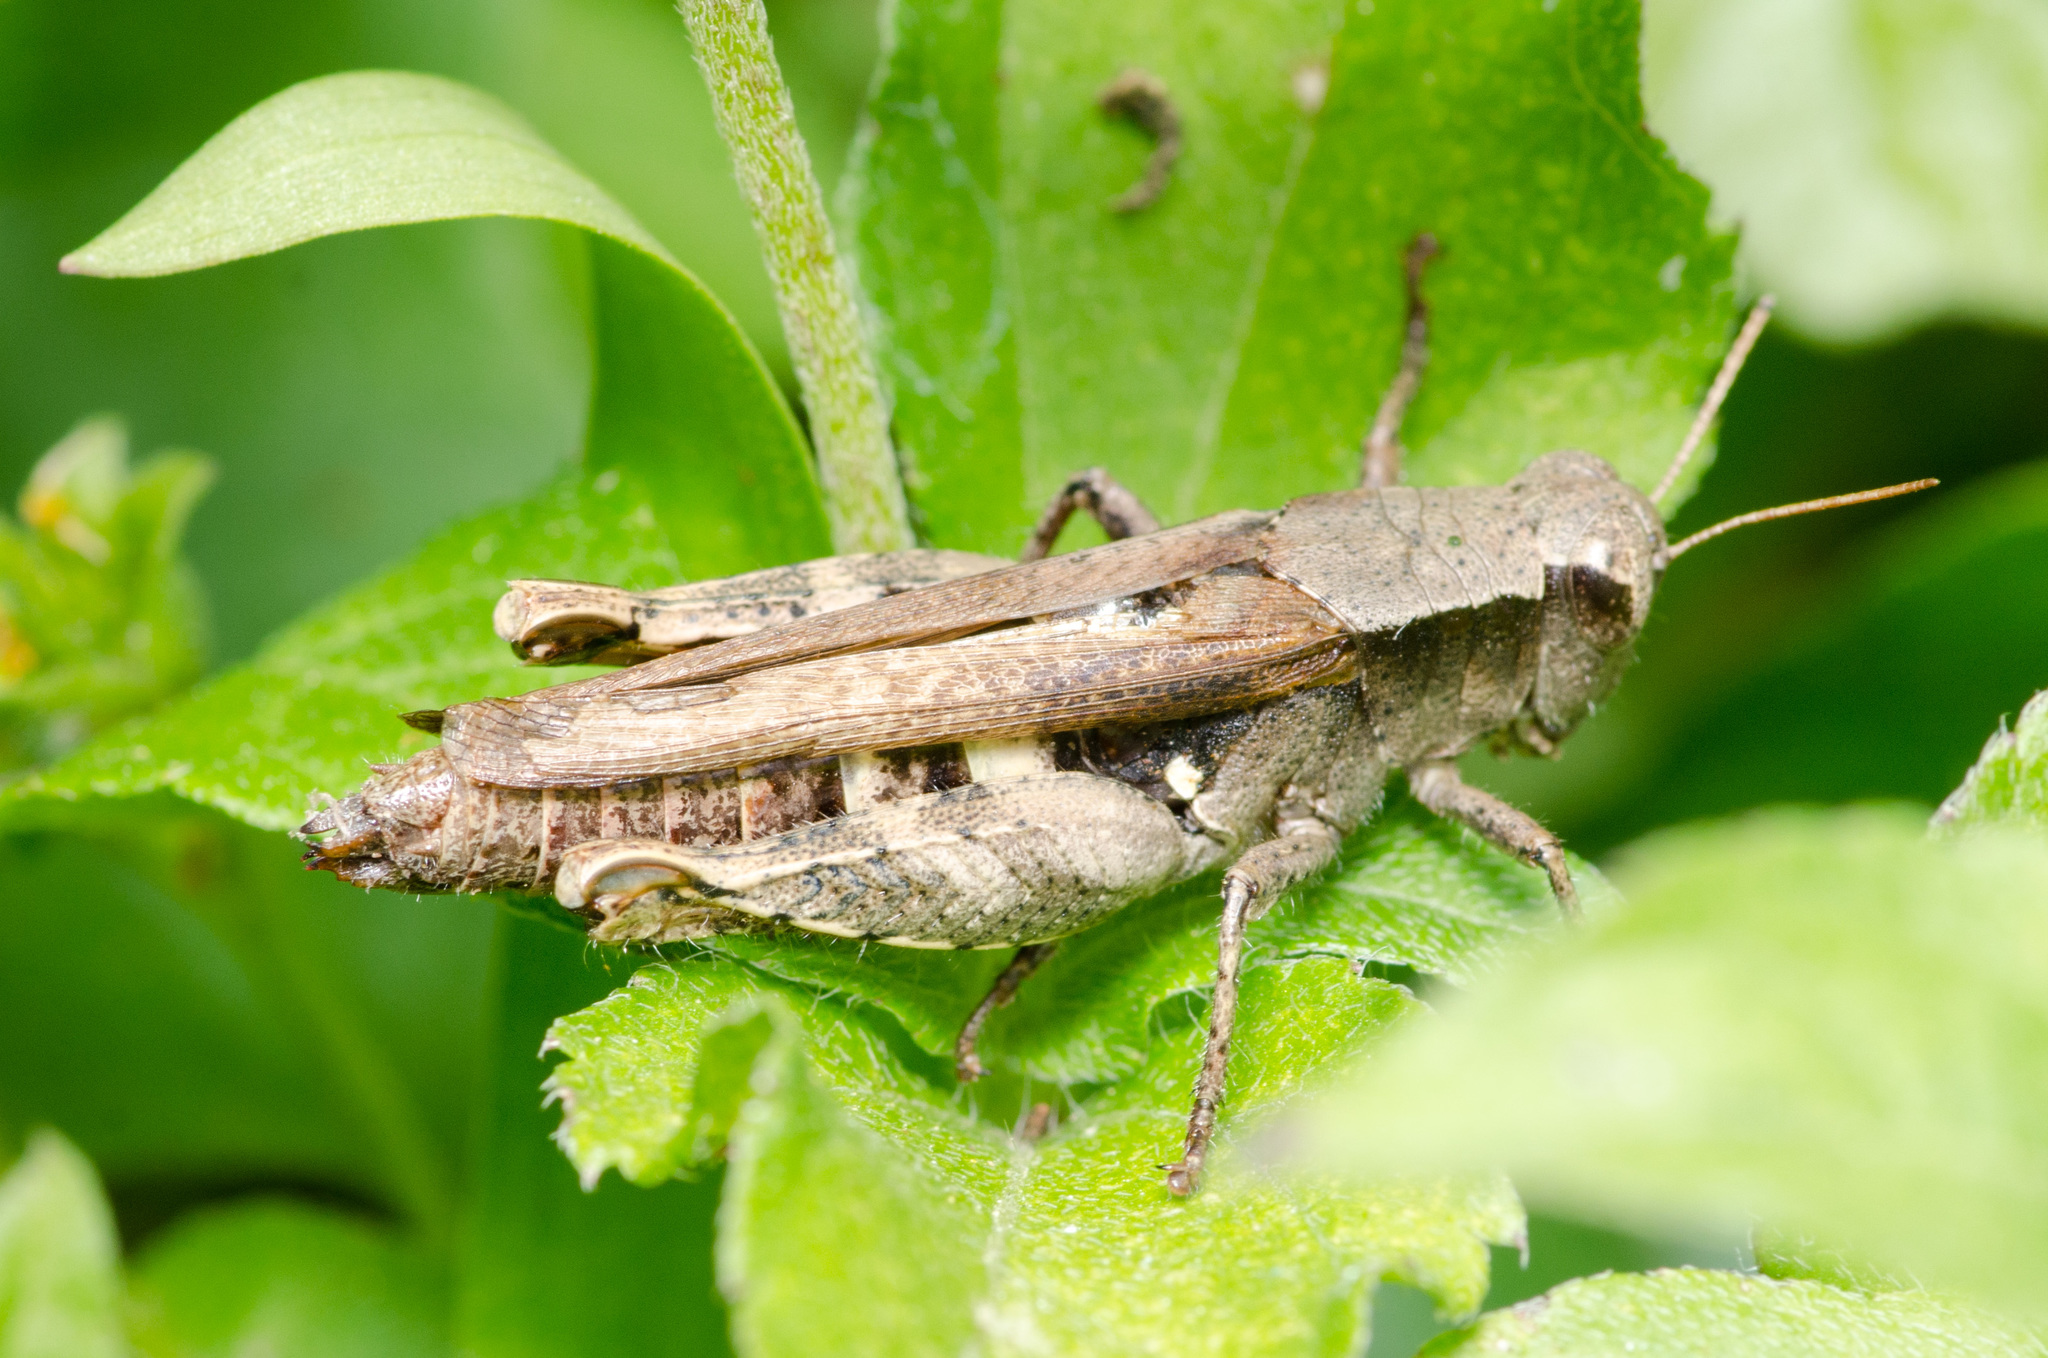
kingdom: Animalia
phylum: Arthropoda
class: Insecta
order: Orthoptera
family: Acrididae
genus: Aidemona
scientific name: Aidemona azteca
